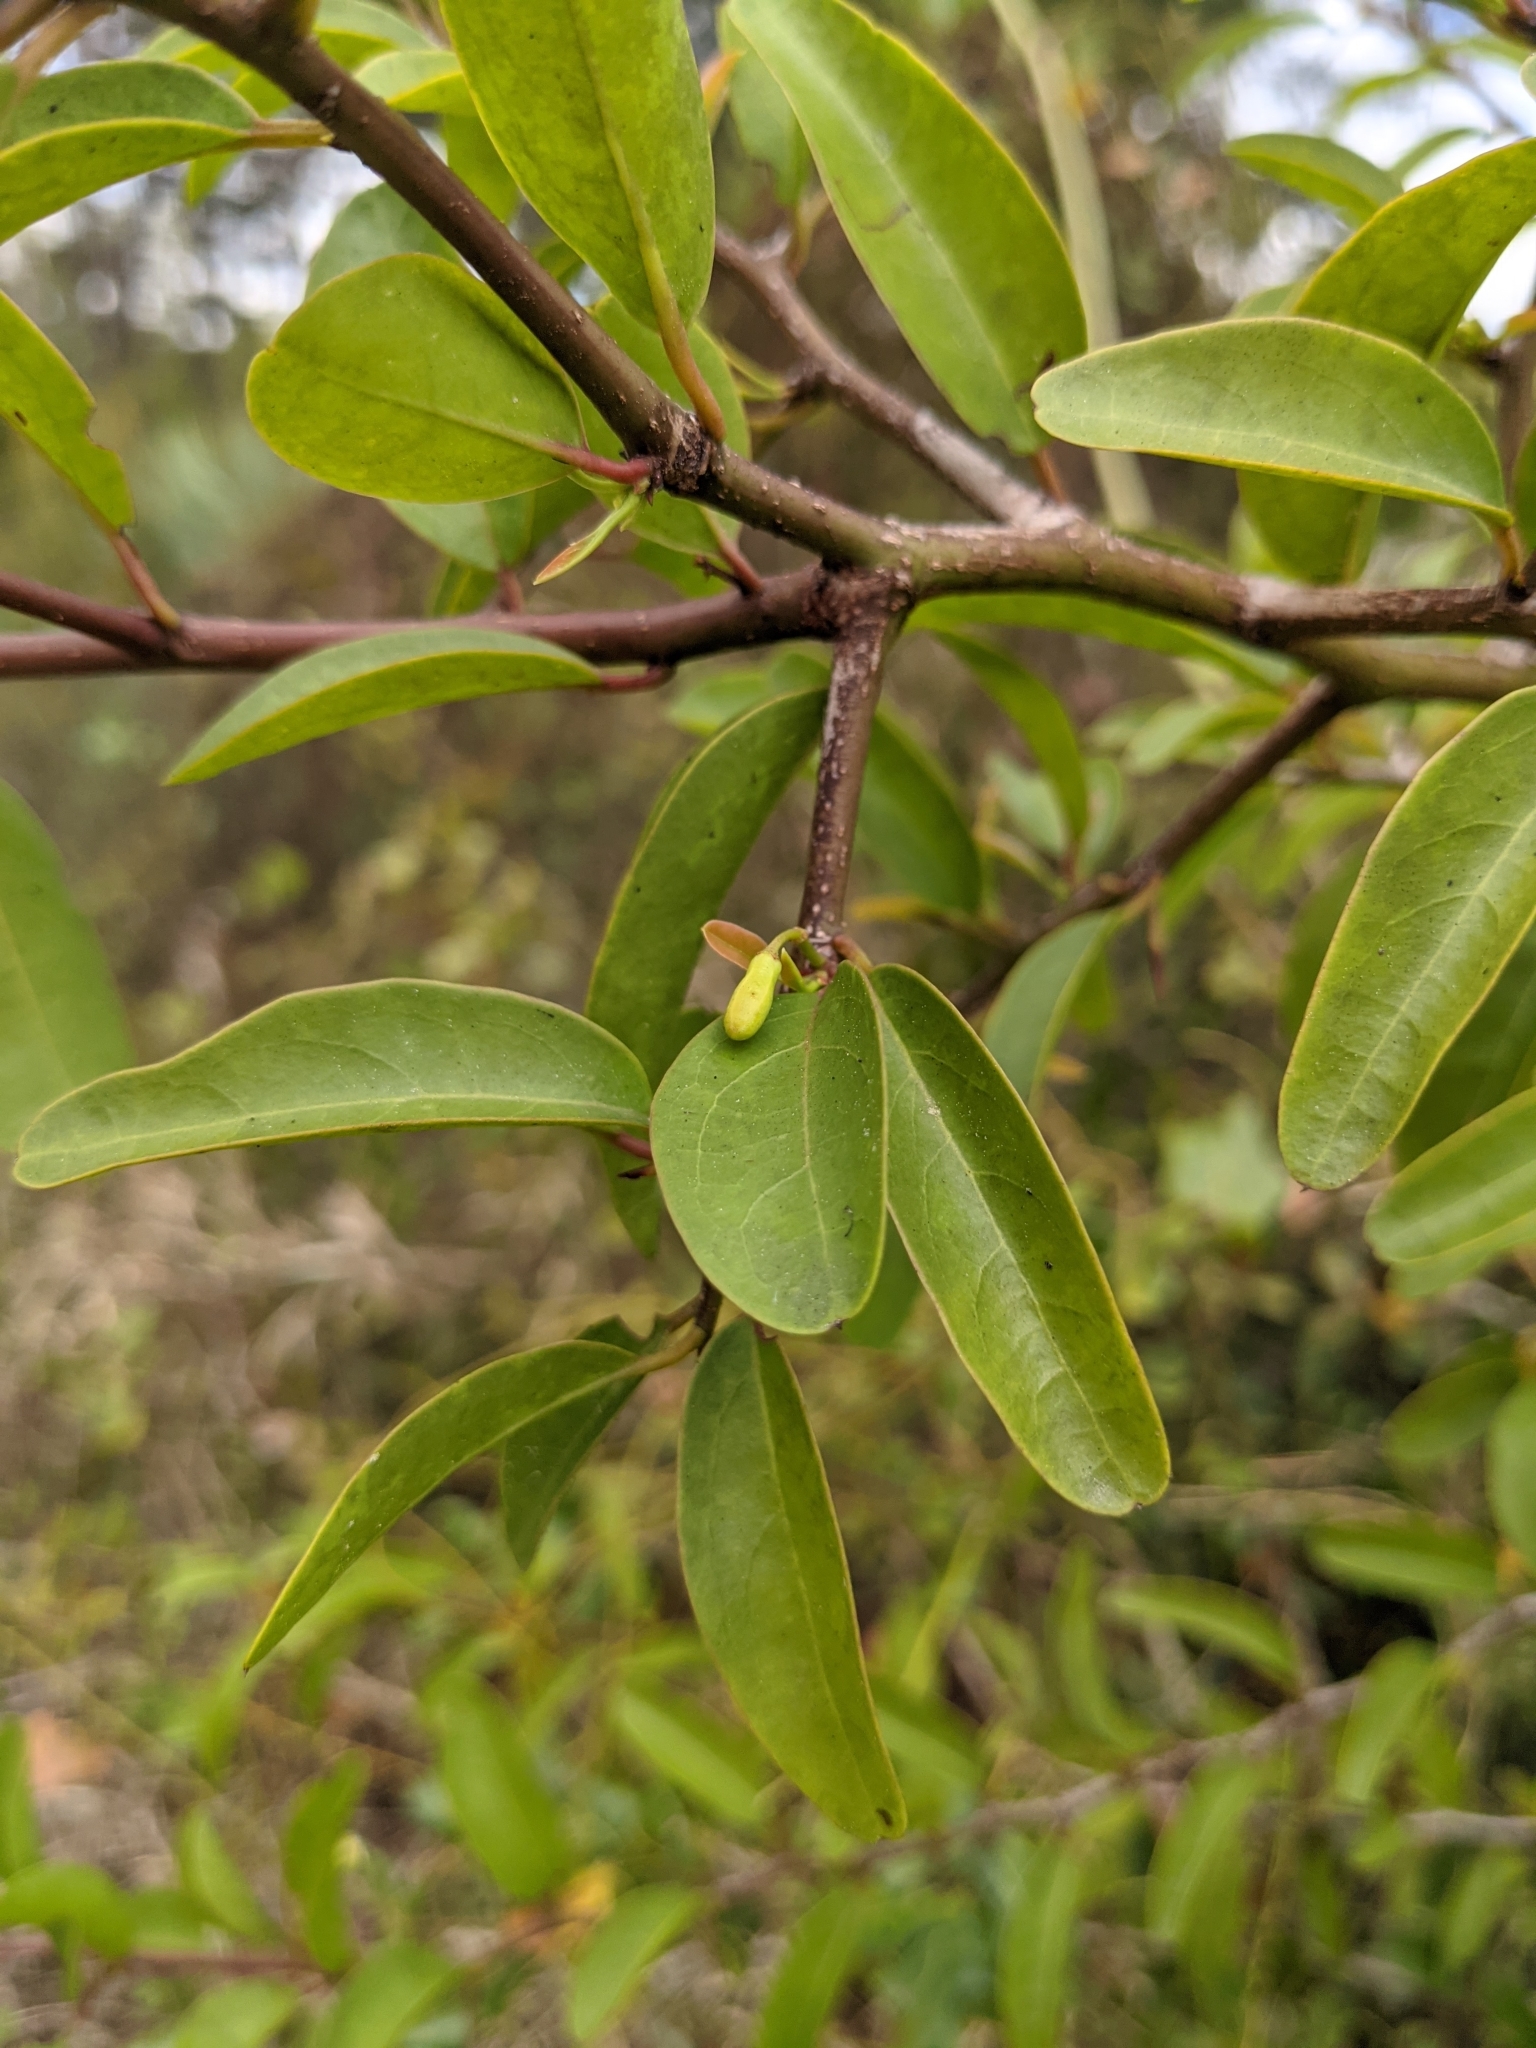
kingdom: Plantae
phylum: Tracheophyta
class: Magnoliopsida
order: Santalales
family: Ximeniaceae
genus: Ximenia
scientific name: Ximenia americana
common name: Tallowwood
